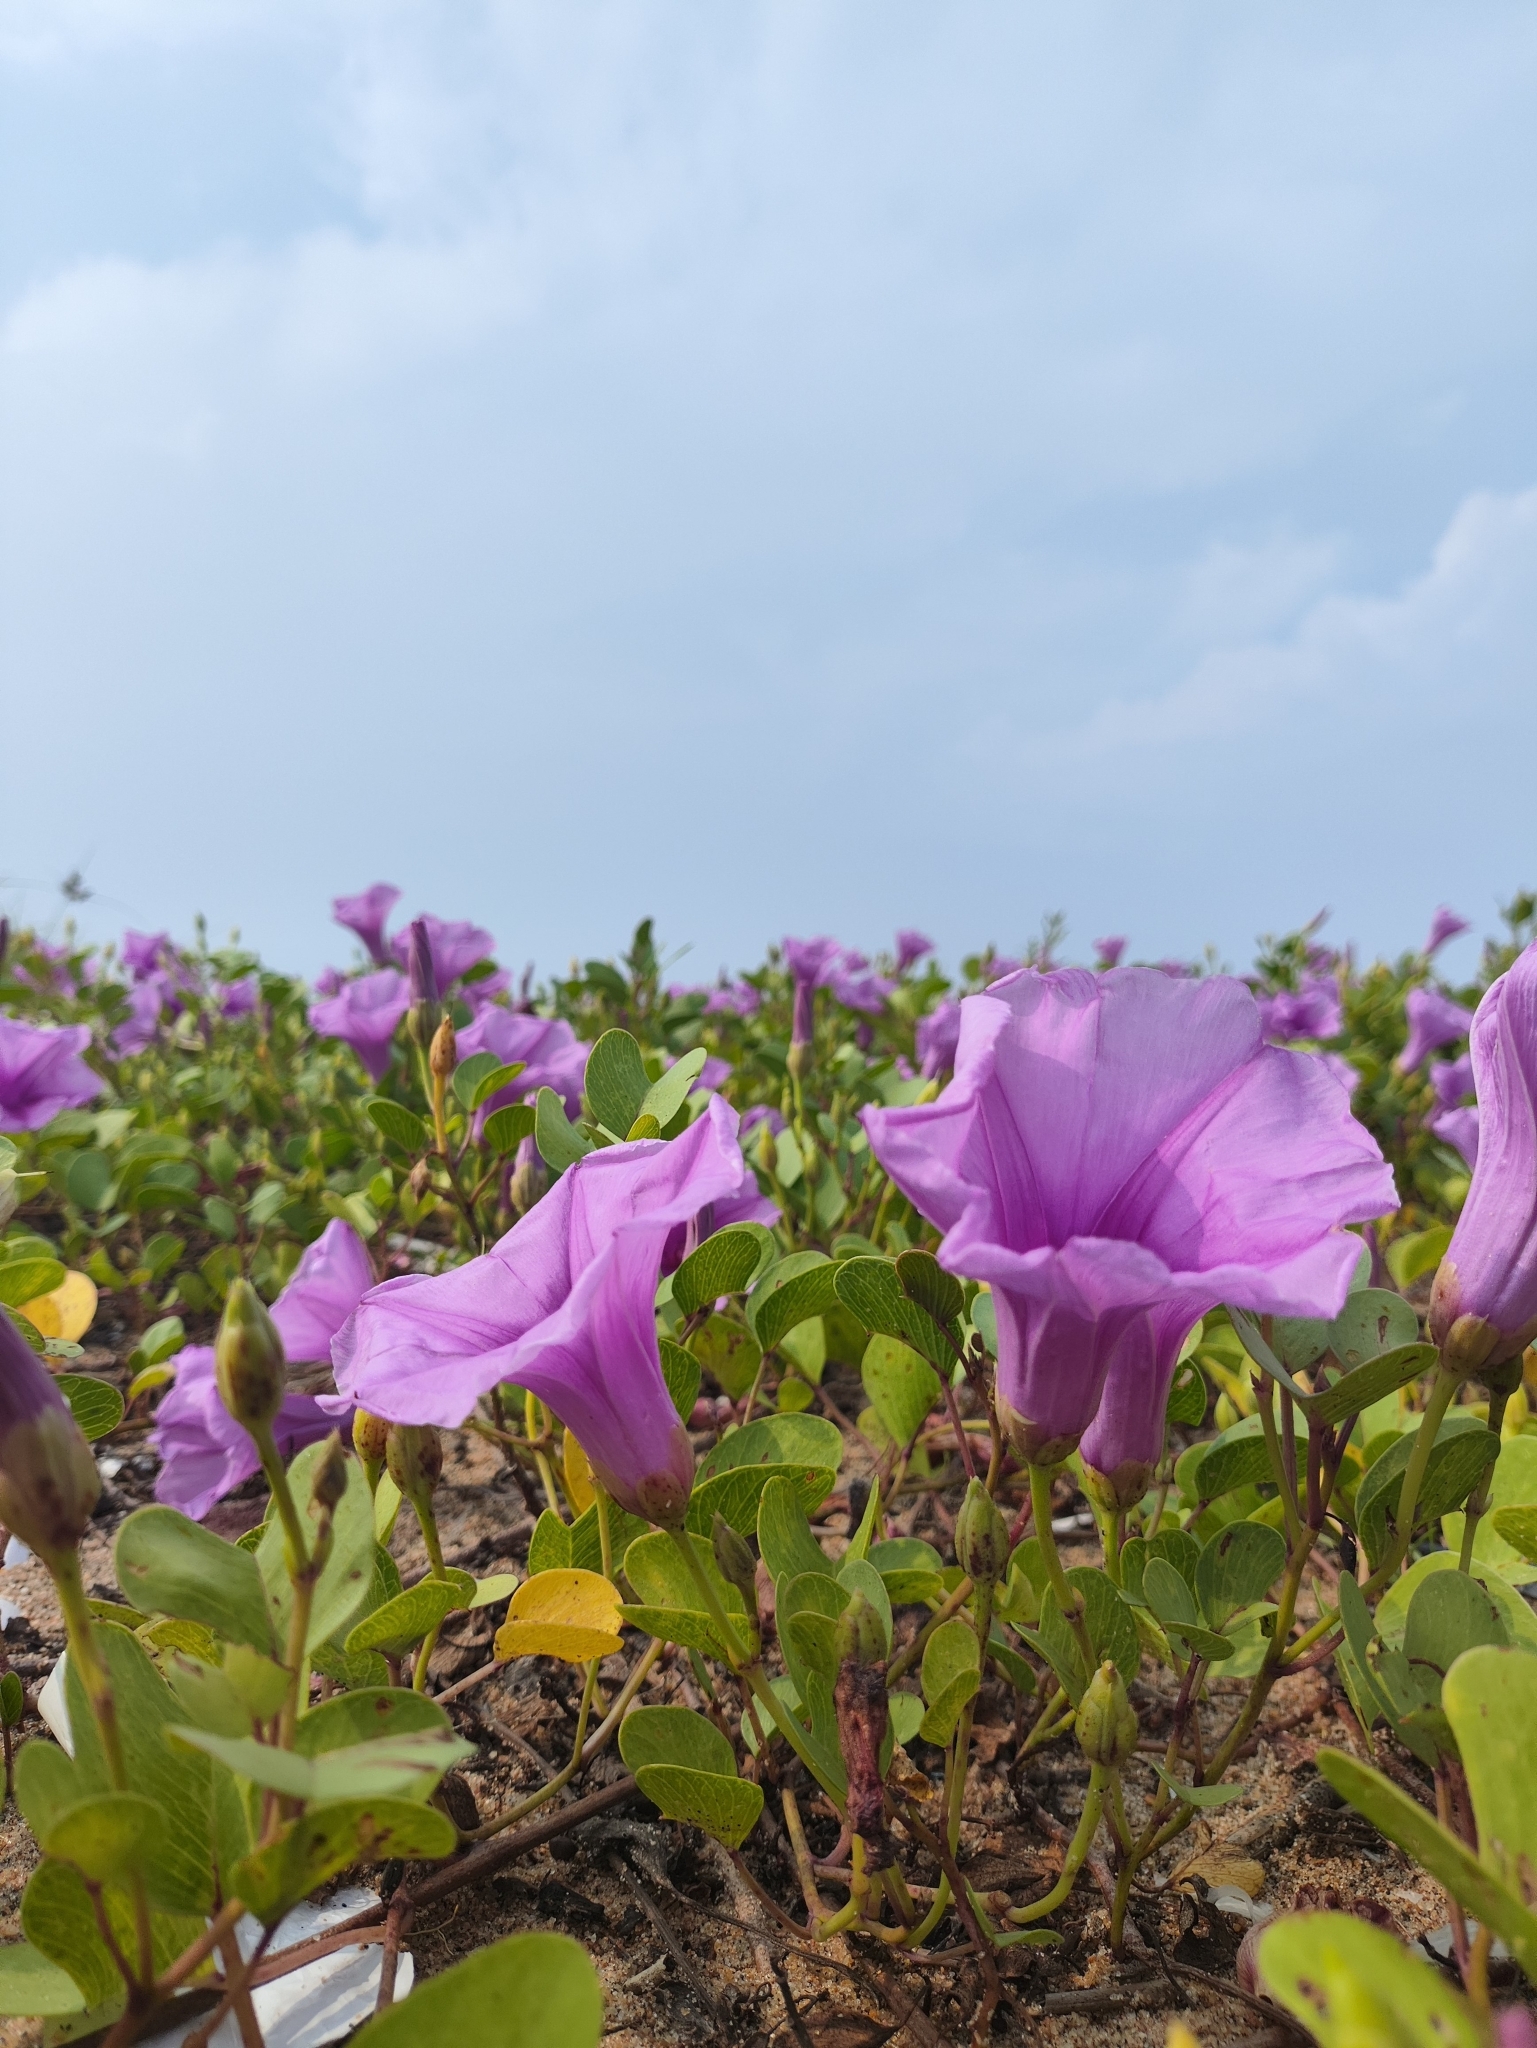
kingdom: Plantae
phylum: Tracheophyta
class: Magnoliopsida
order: Solanales
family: Convolvulaceae
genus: Ipomoea
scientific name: Ipomoea pes-caprae
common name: Beach morning glory
